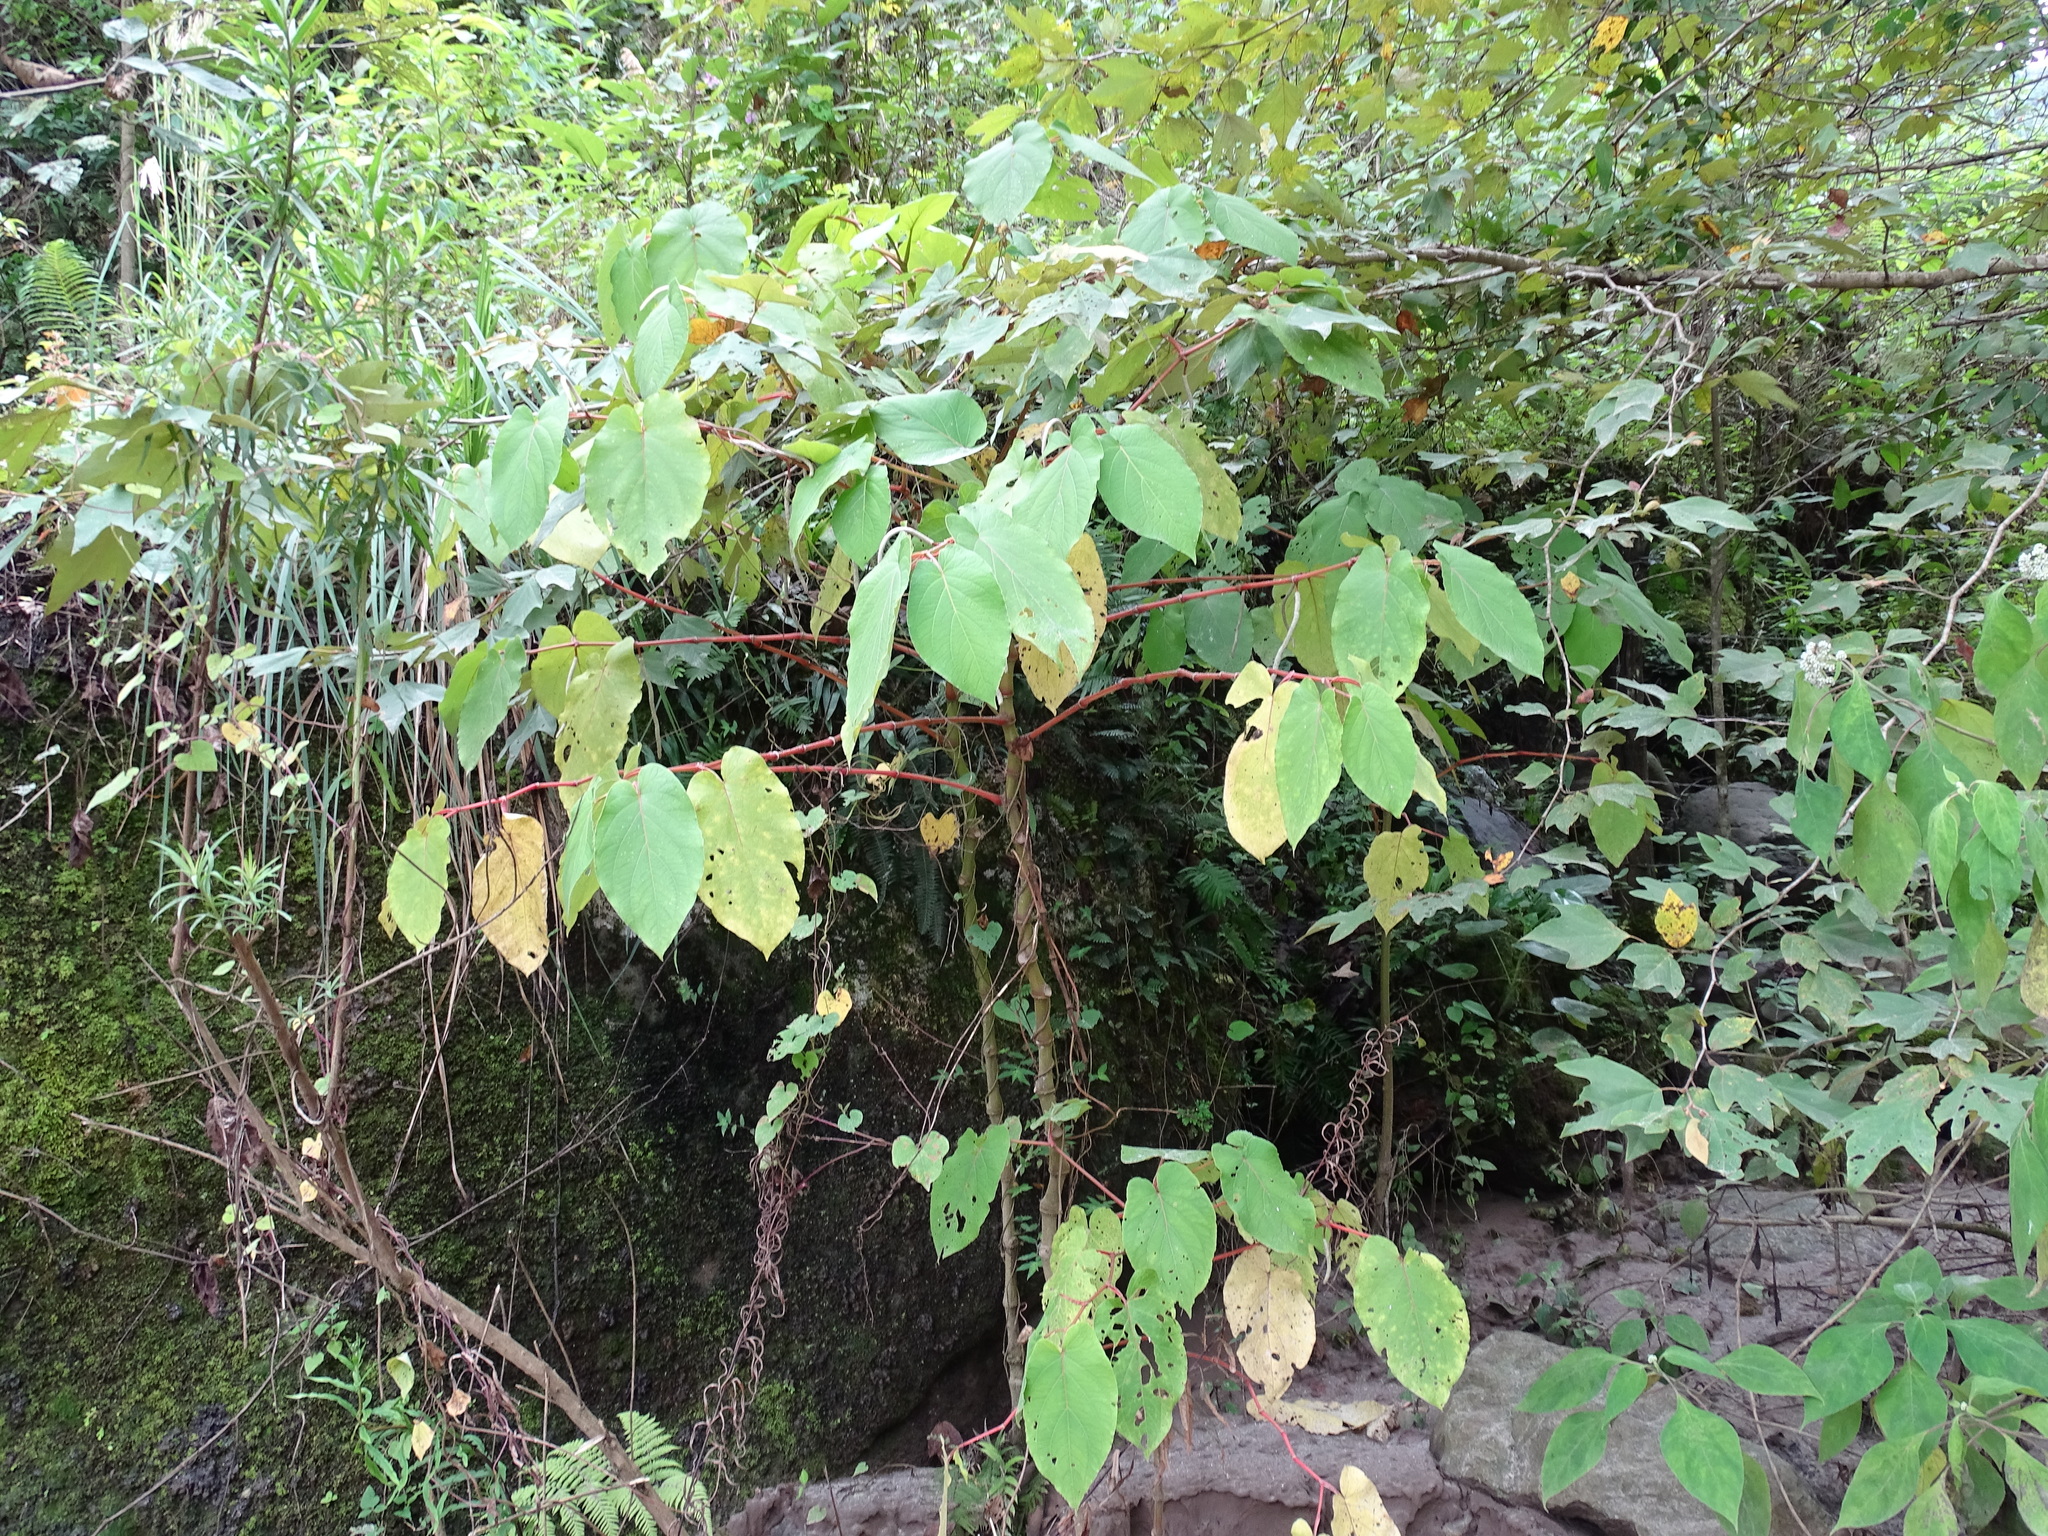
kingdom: Plantae
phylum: Tracheophyta
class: Magnoliopsida
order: Piperales
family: Piperaceae
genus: Piper
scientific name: Piper auritum
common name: Vera cruz pepper
